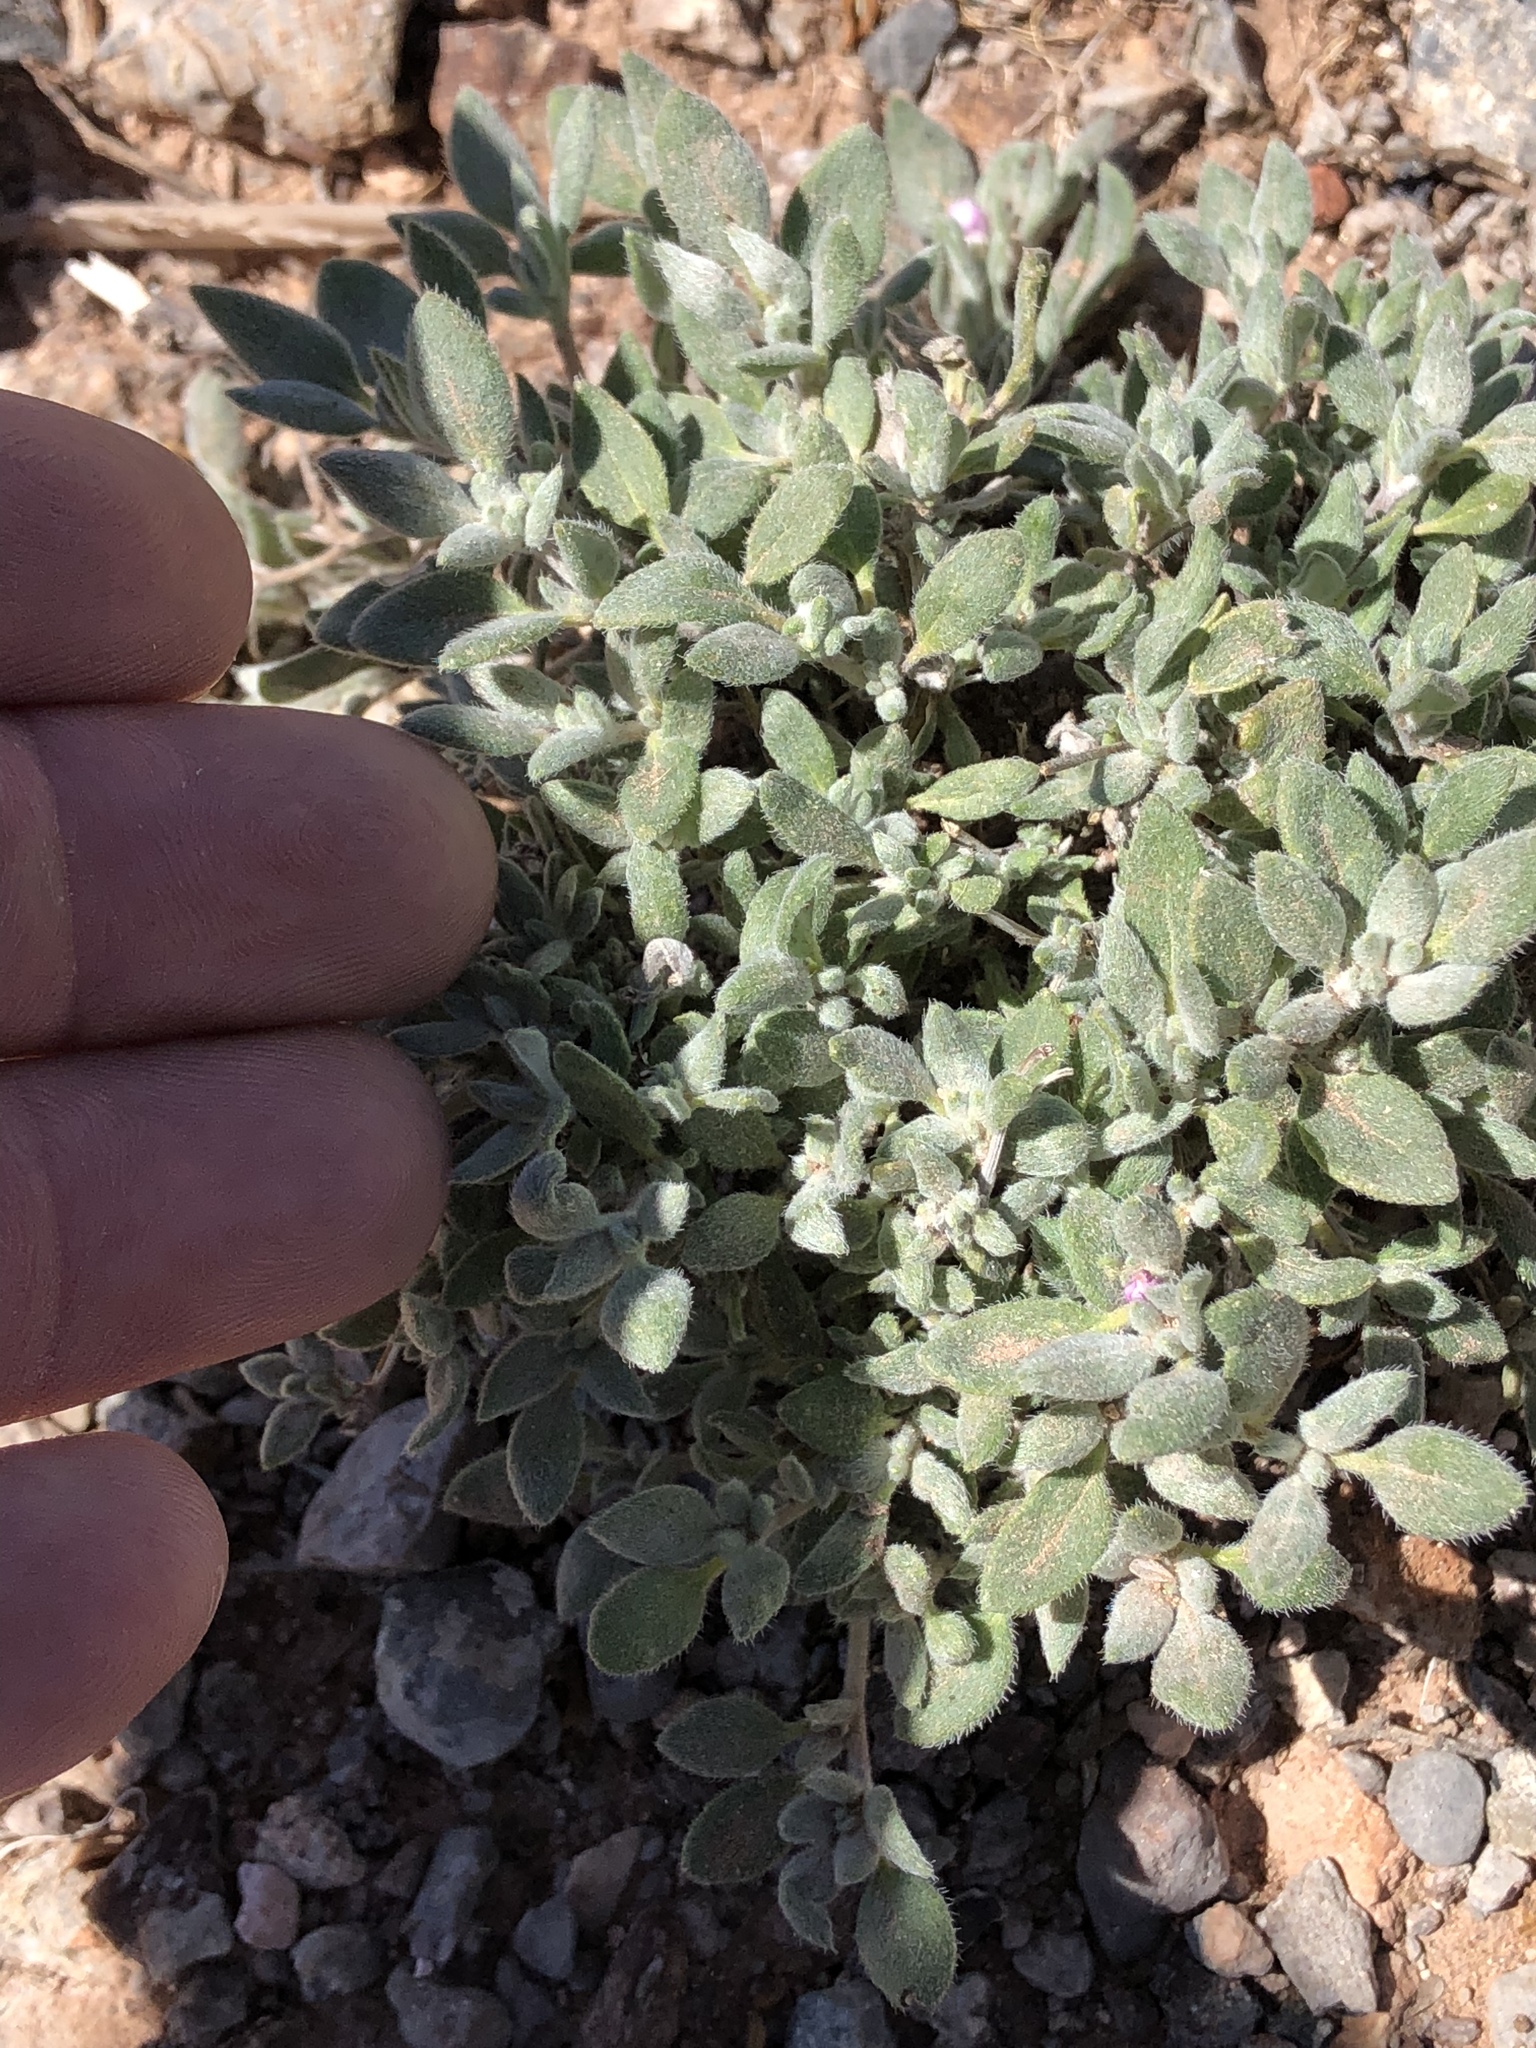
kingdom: Plantae
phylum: Tracheophyta
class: Magnoliopsida
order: Boraginales
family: Ehretiaceae
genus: Tiquilia
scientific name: Tiquilia canescens
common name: Hairy tiquilia
